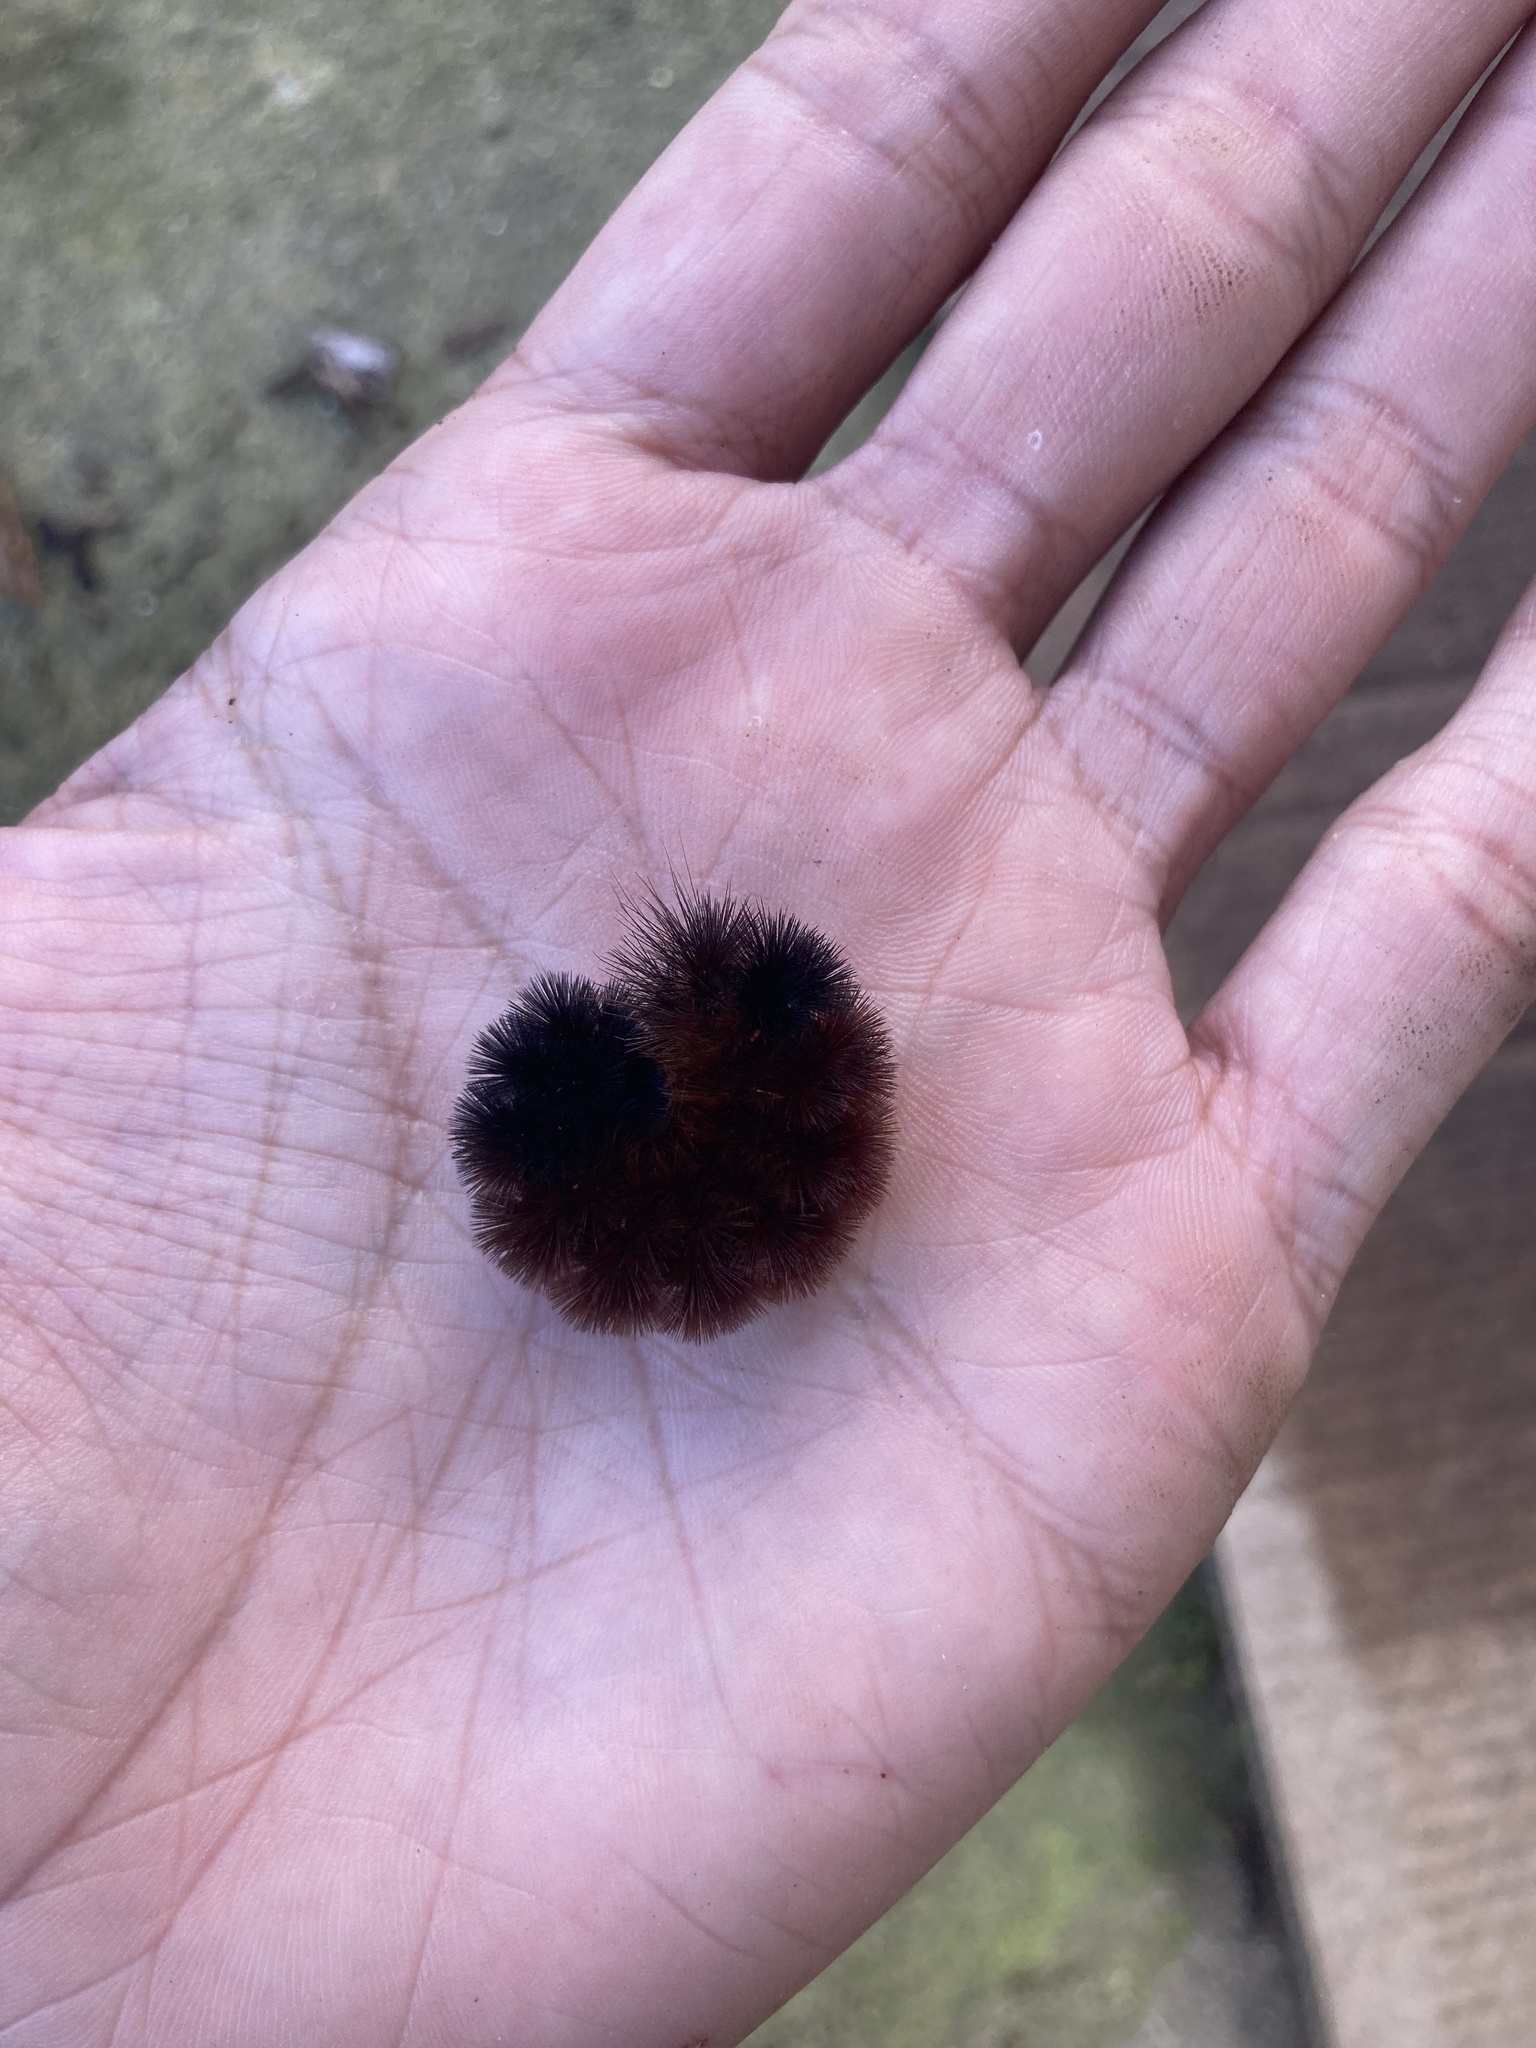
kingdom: Animalia
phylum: Arthropoda
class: Insecta
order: Lepidoptera
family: Erebidae
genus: Pyrrharctia
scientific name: Pyrrharctia isabella
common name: Isabella tiger moth
